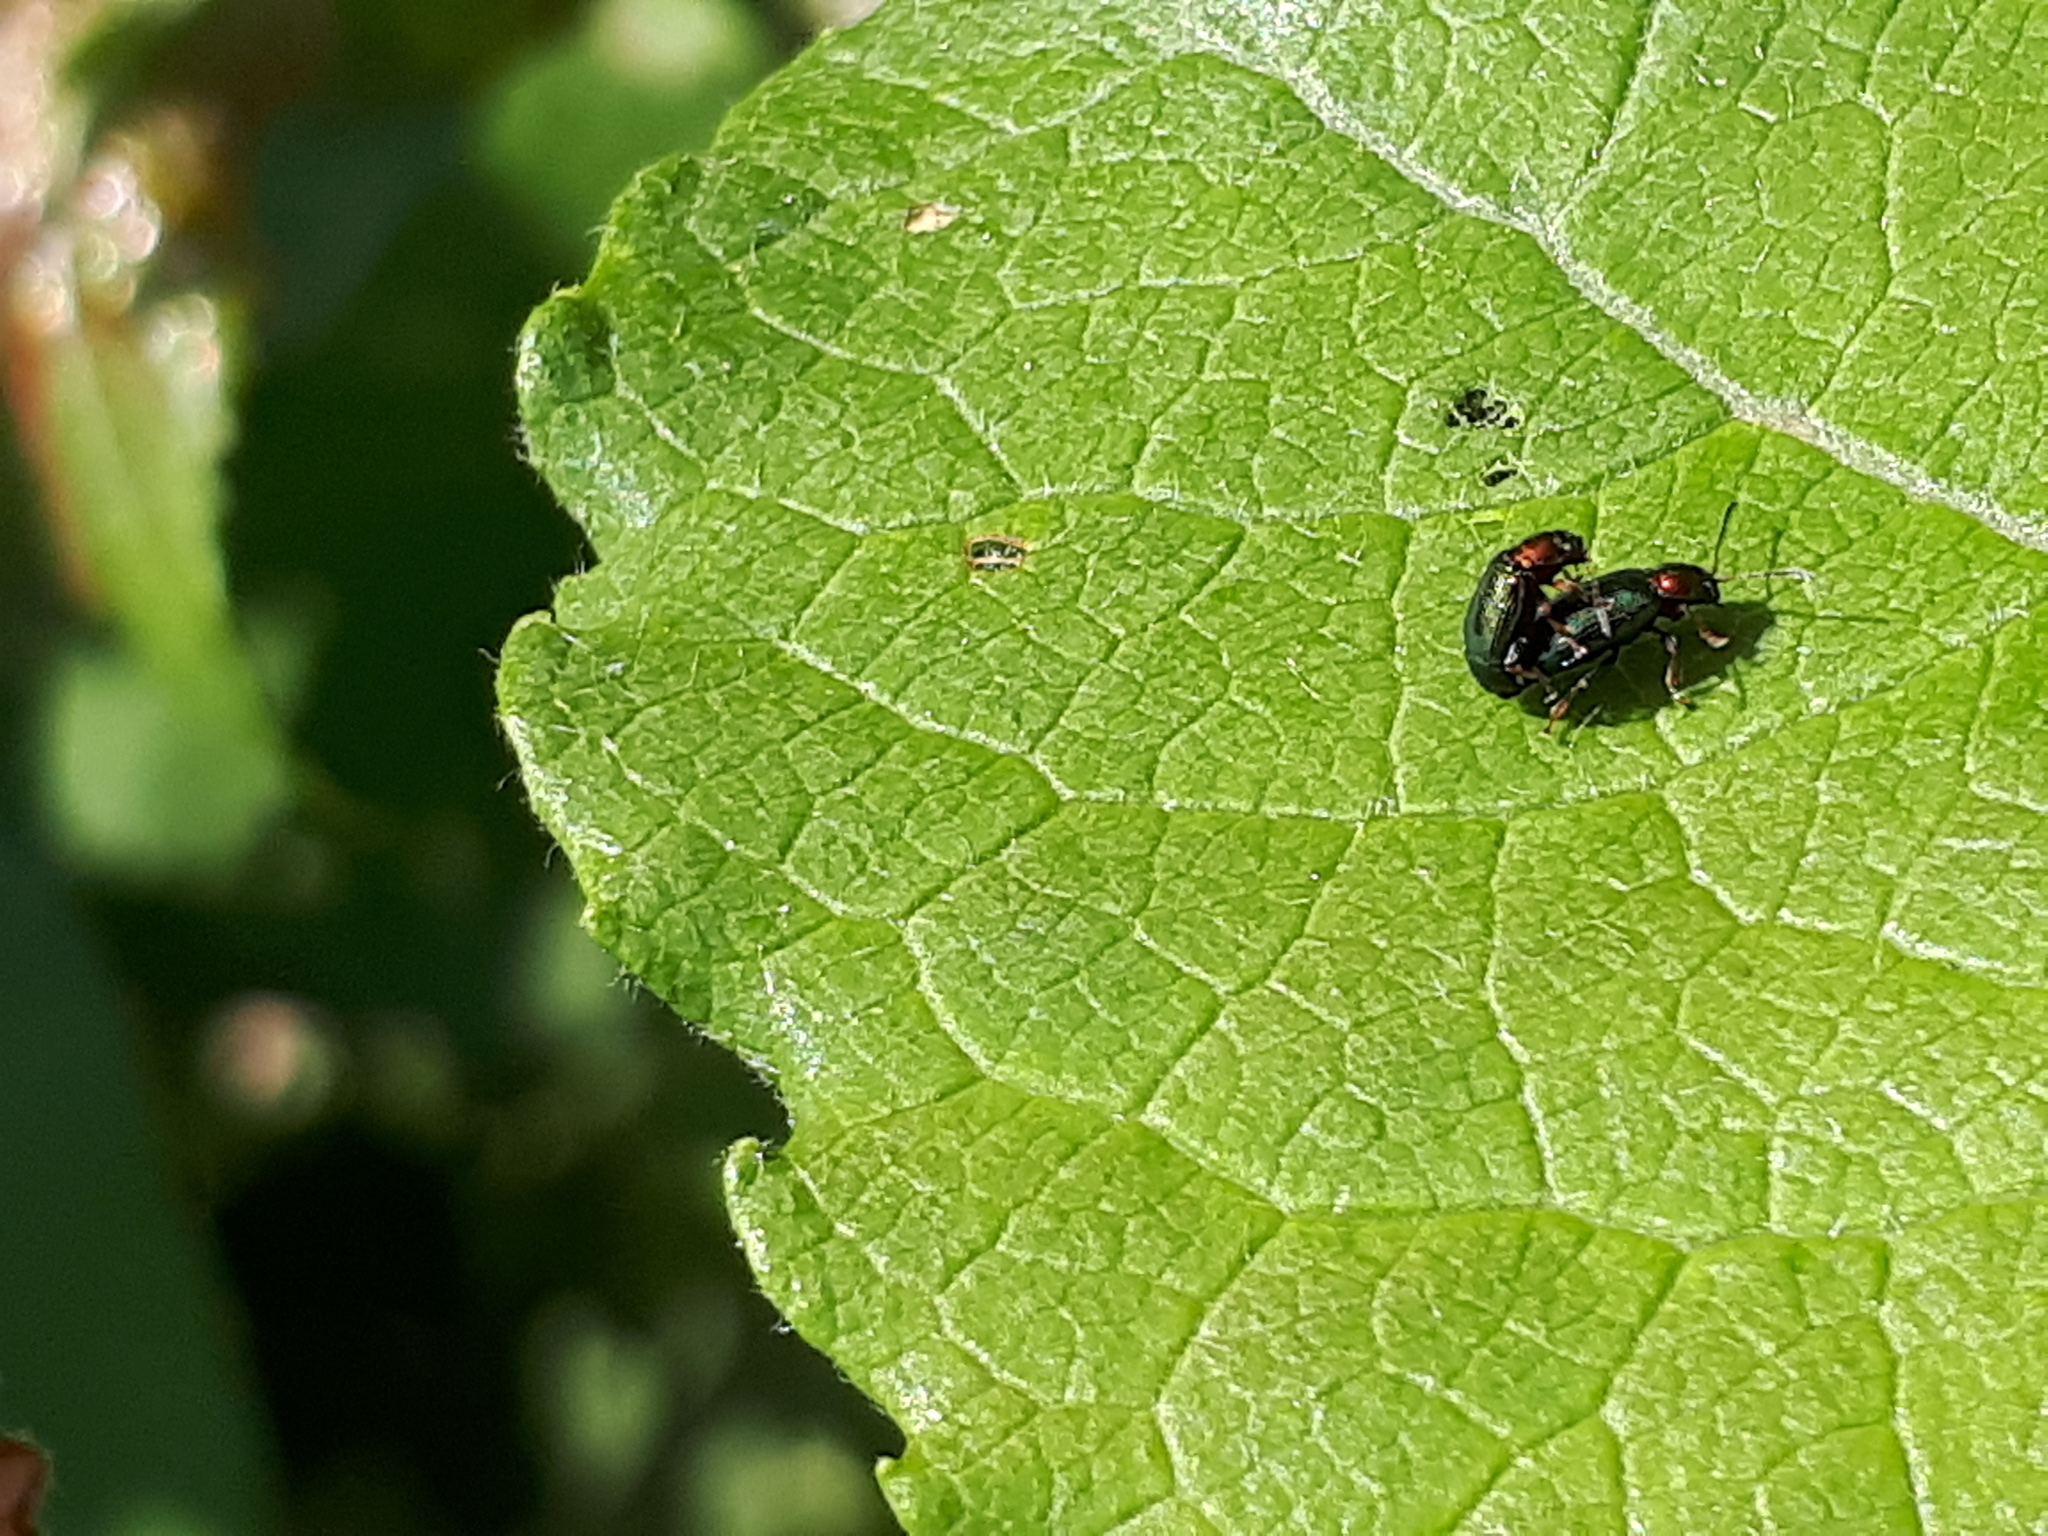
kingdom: Animalia
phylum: Arthropoda
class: Insecta
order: Coleoptera
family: Chrysomelidae
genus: Crepidodera
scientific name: Crepidodera aurata
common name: Willow flea beetle
